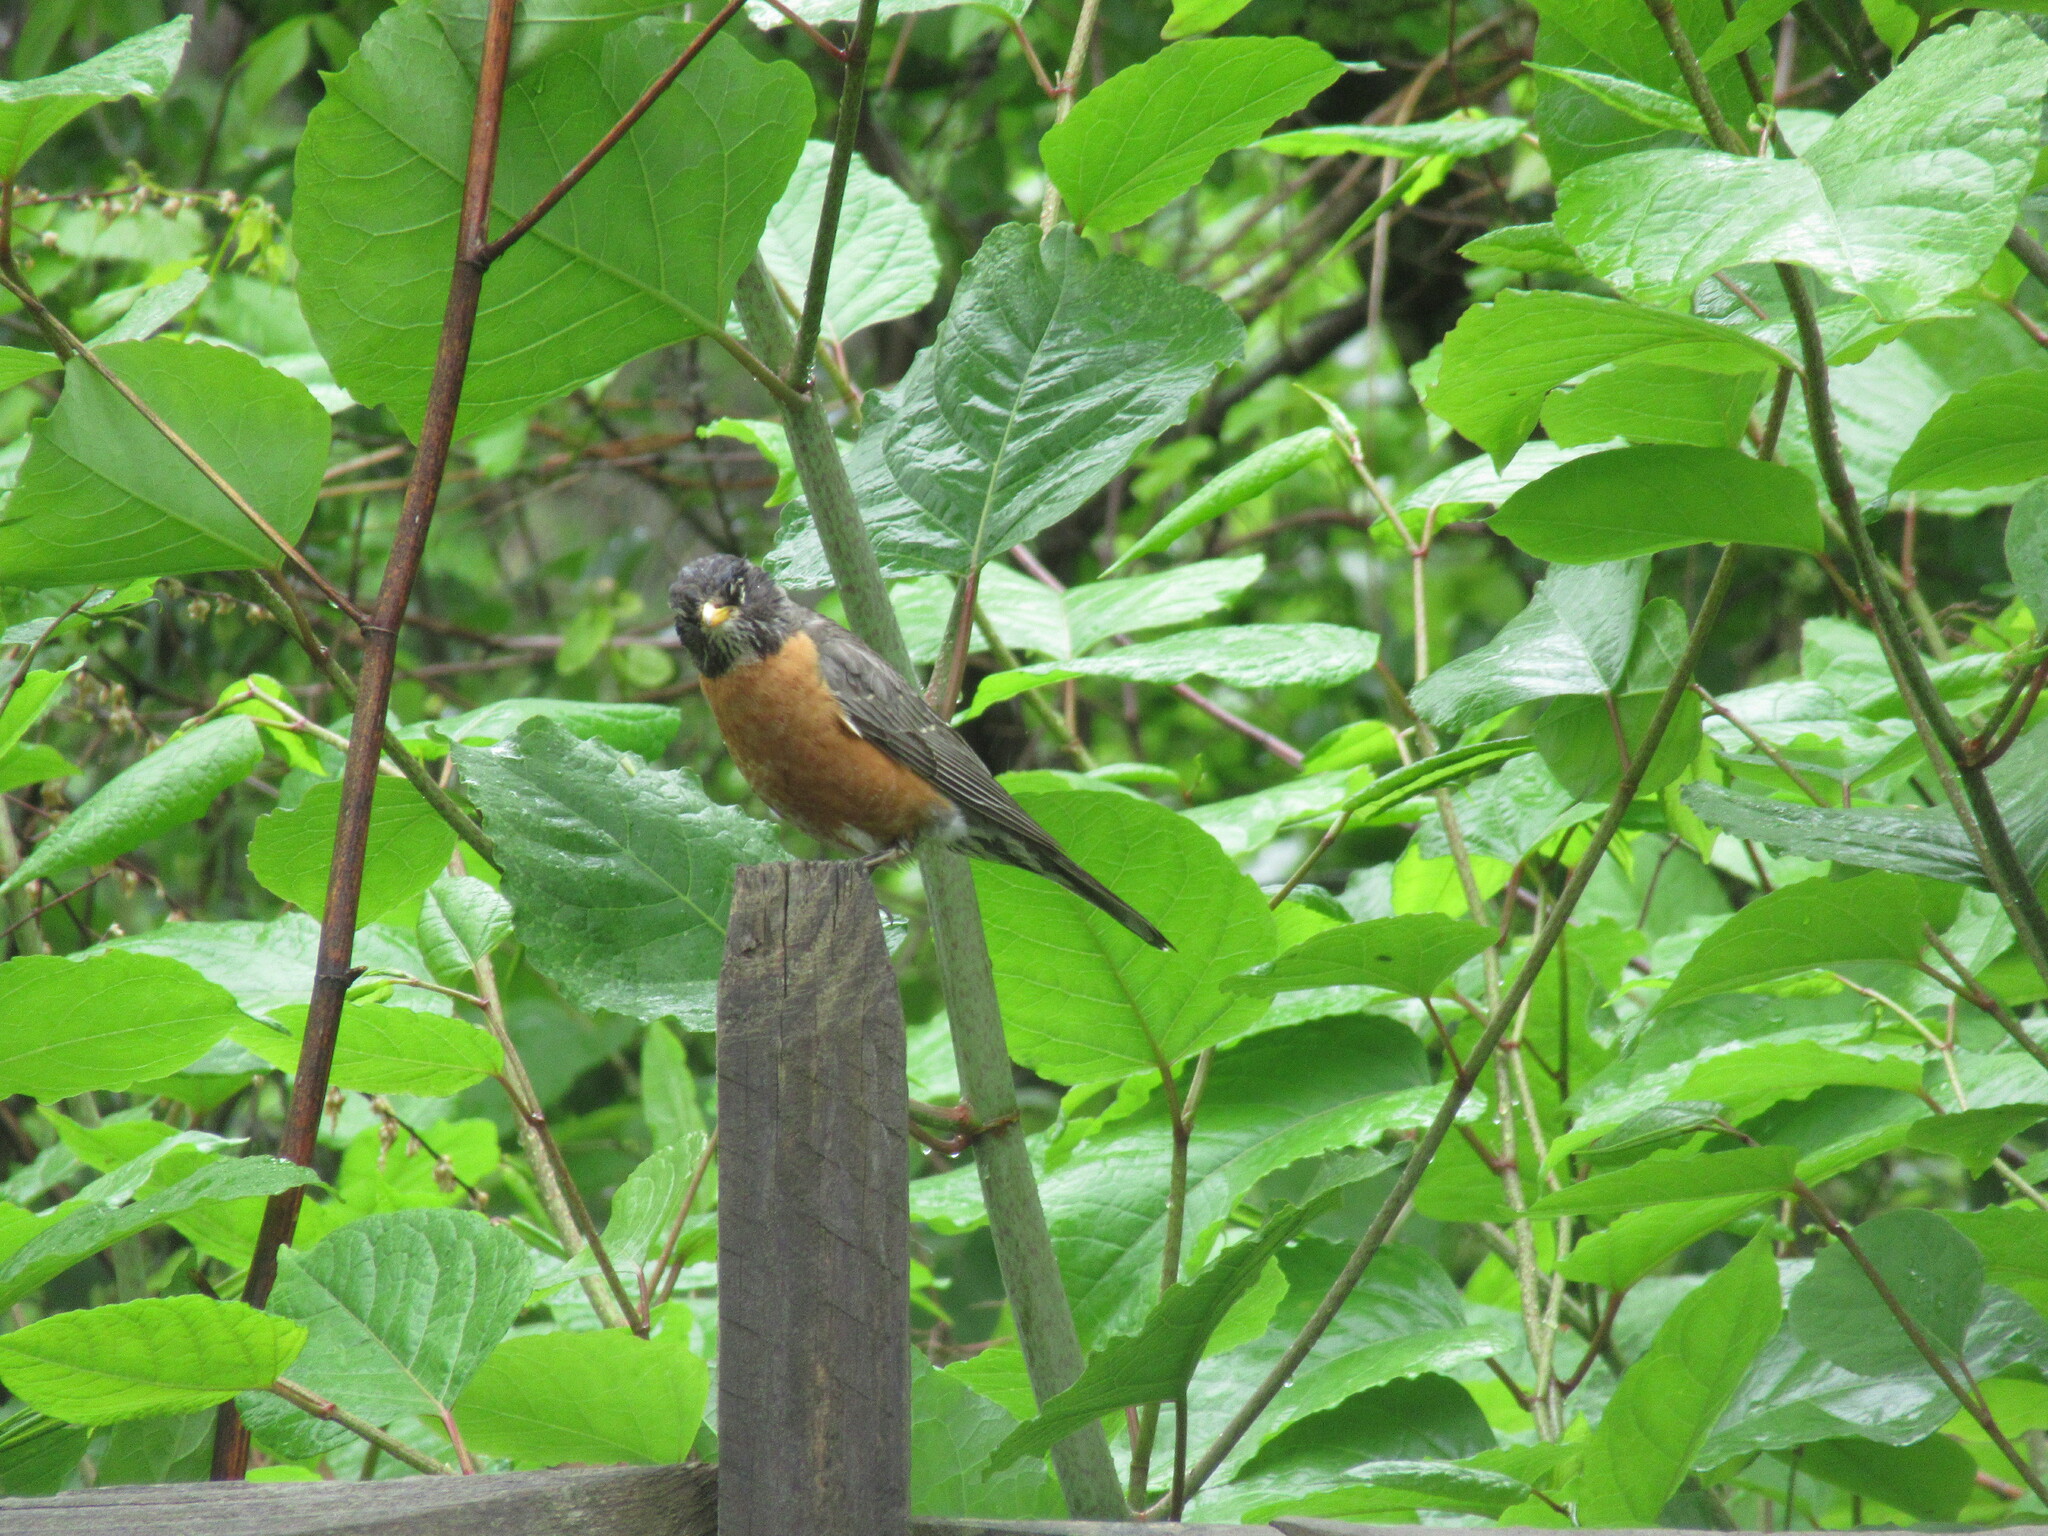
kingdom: Animalia
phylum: Chordata
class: Aves
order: Passeriformes
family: Turdidae
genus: Turdus
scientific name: Turdus migratorius
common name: American robin
